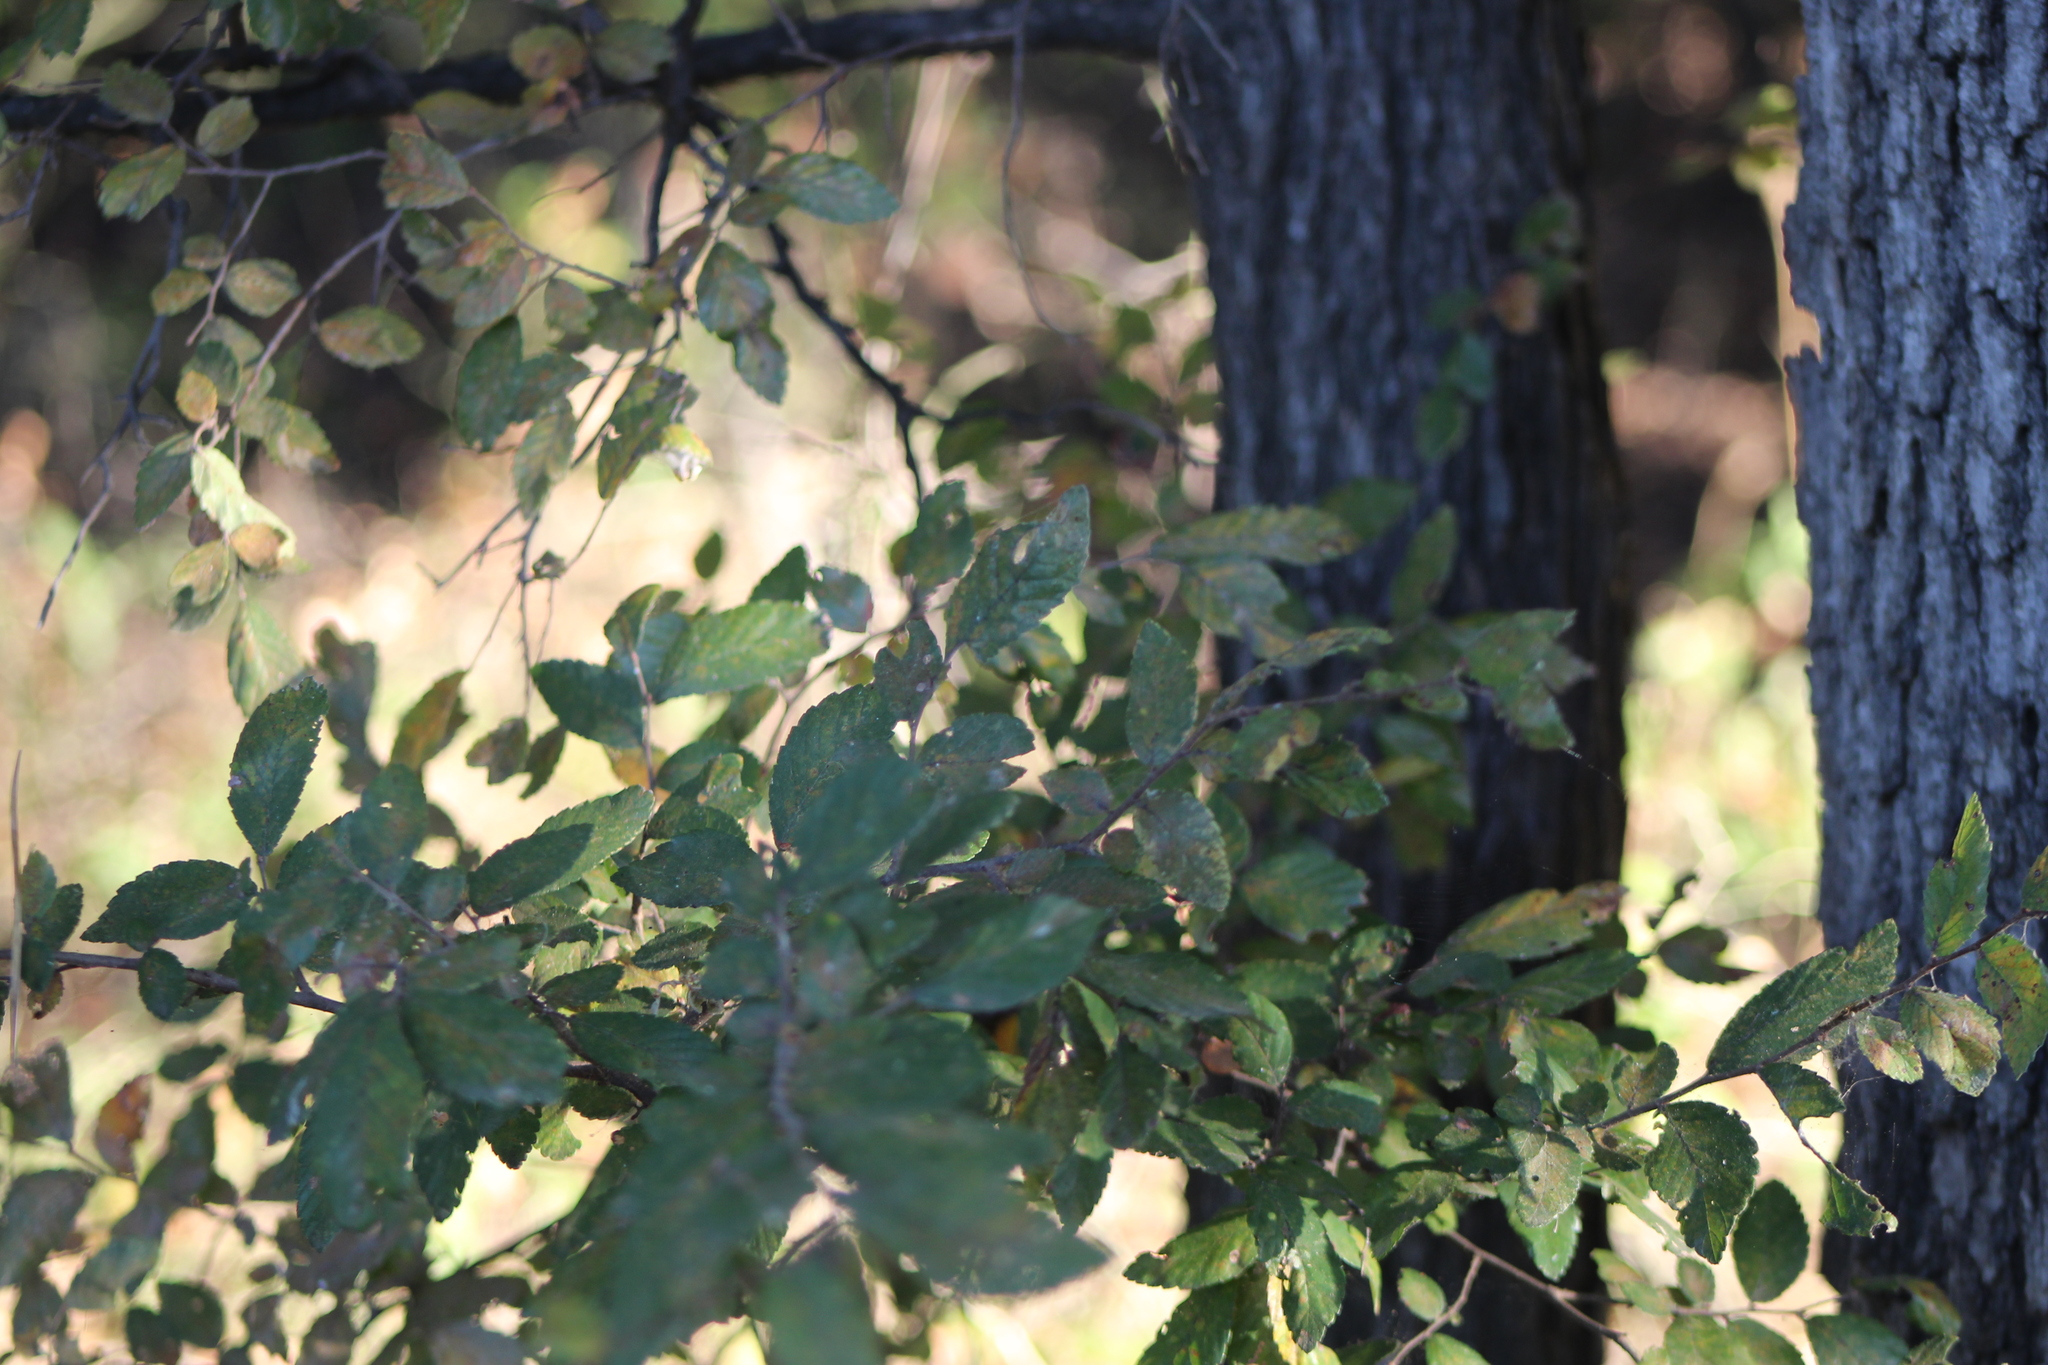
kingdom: Plantae
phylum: Tracheophyta
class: Magnoliopsida
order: Rosales
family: Ulmaceae
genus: Ulmus
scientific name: Ulmus crassifolia
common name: Basket elm
